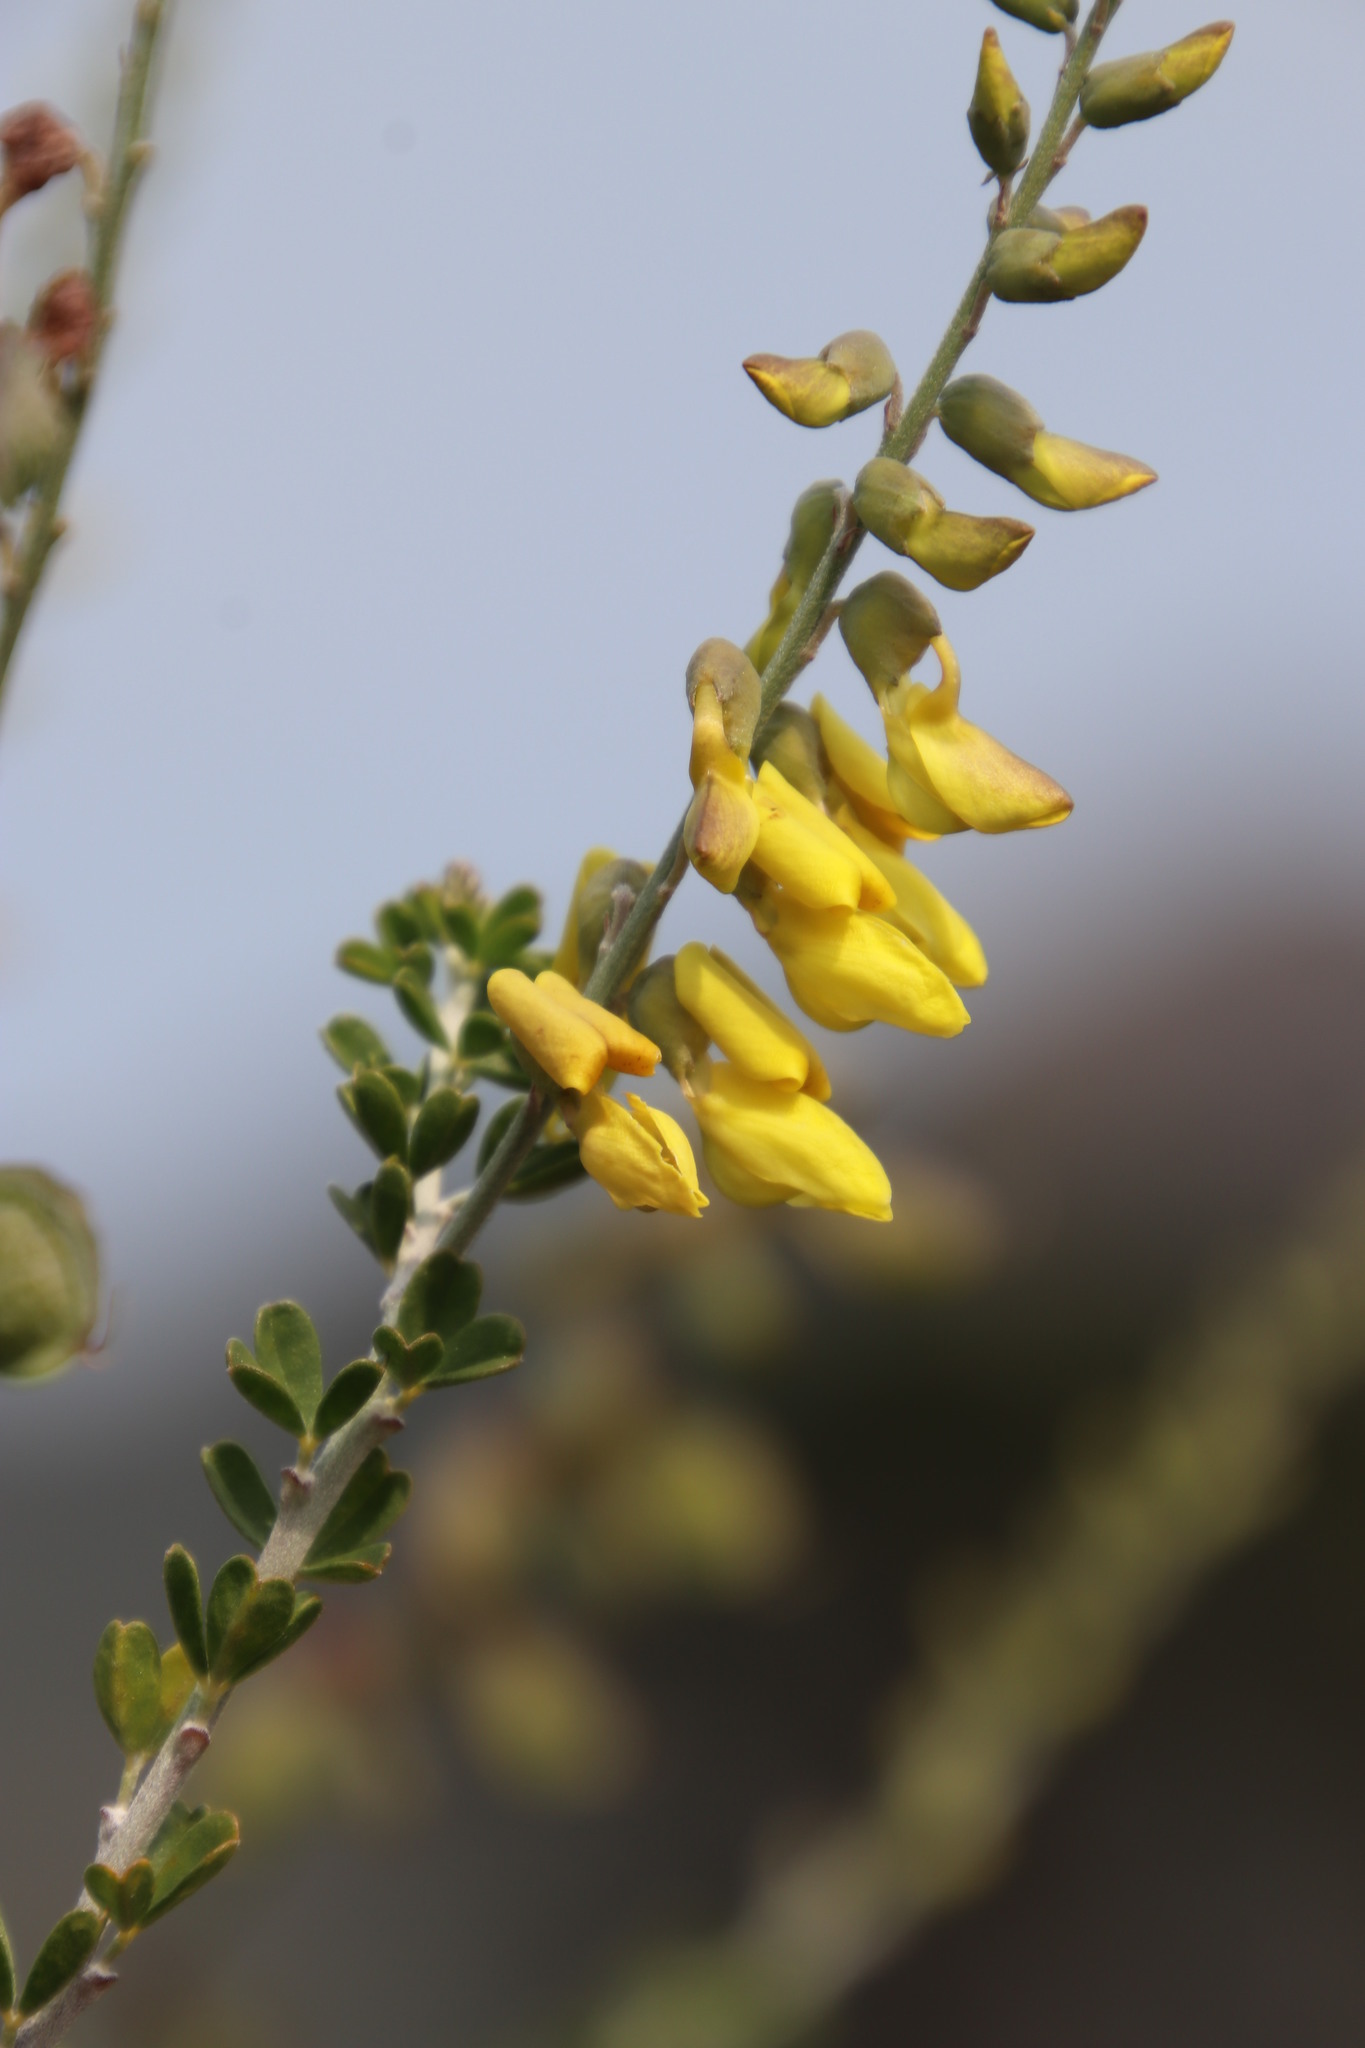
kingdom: Plantae
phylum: Tracheophyta
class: Magnoliopsida
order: Fabales
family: Fabaceae
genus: Wiborgia
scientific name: Wiborgia obcordata
